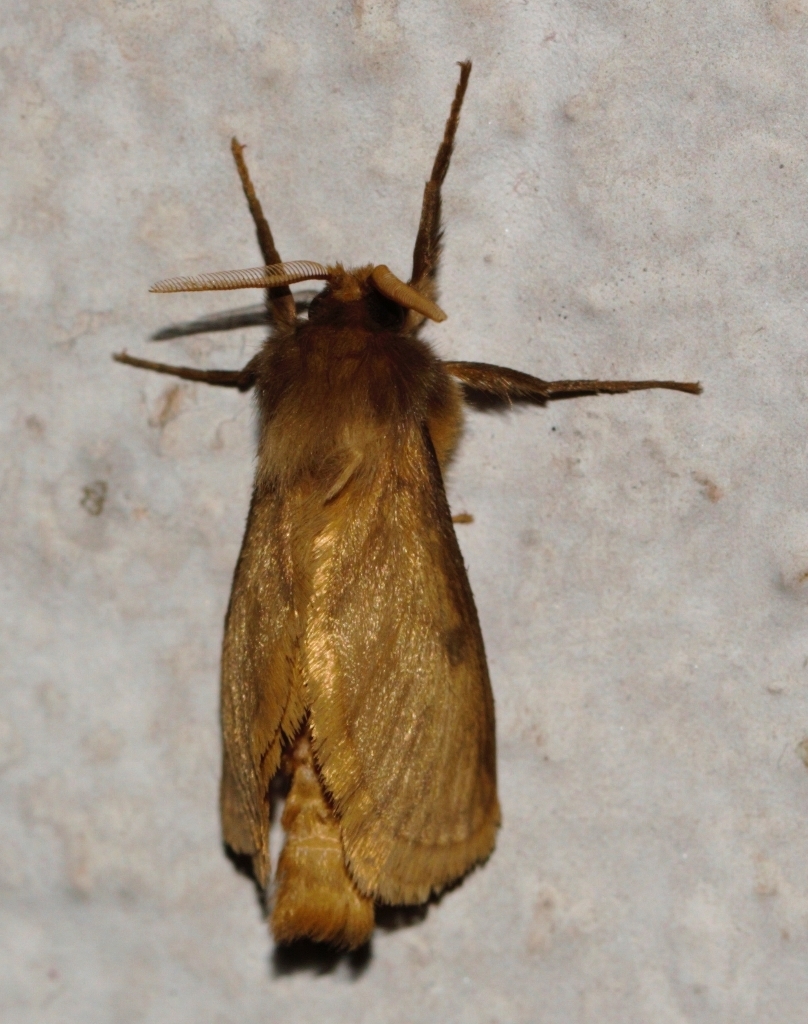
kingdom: Animalia
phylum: Arthropoda
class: Insecta
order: Lepidoptera
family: Hepialidae
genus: Gorgopis
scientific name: Gorgopis libania
